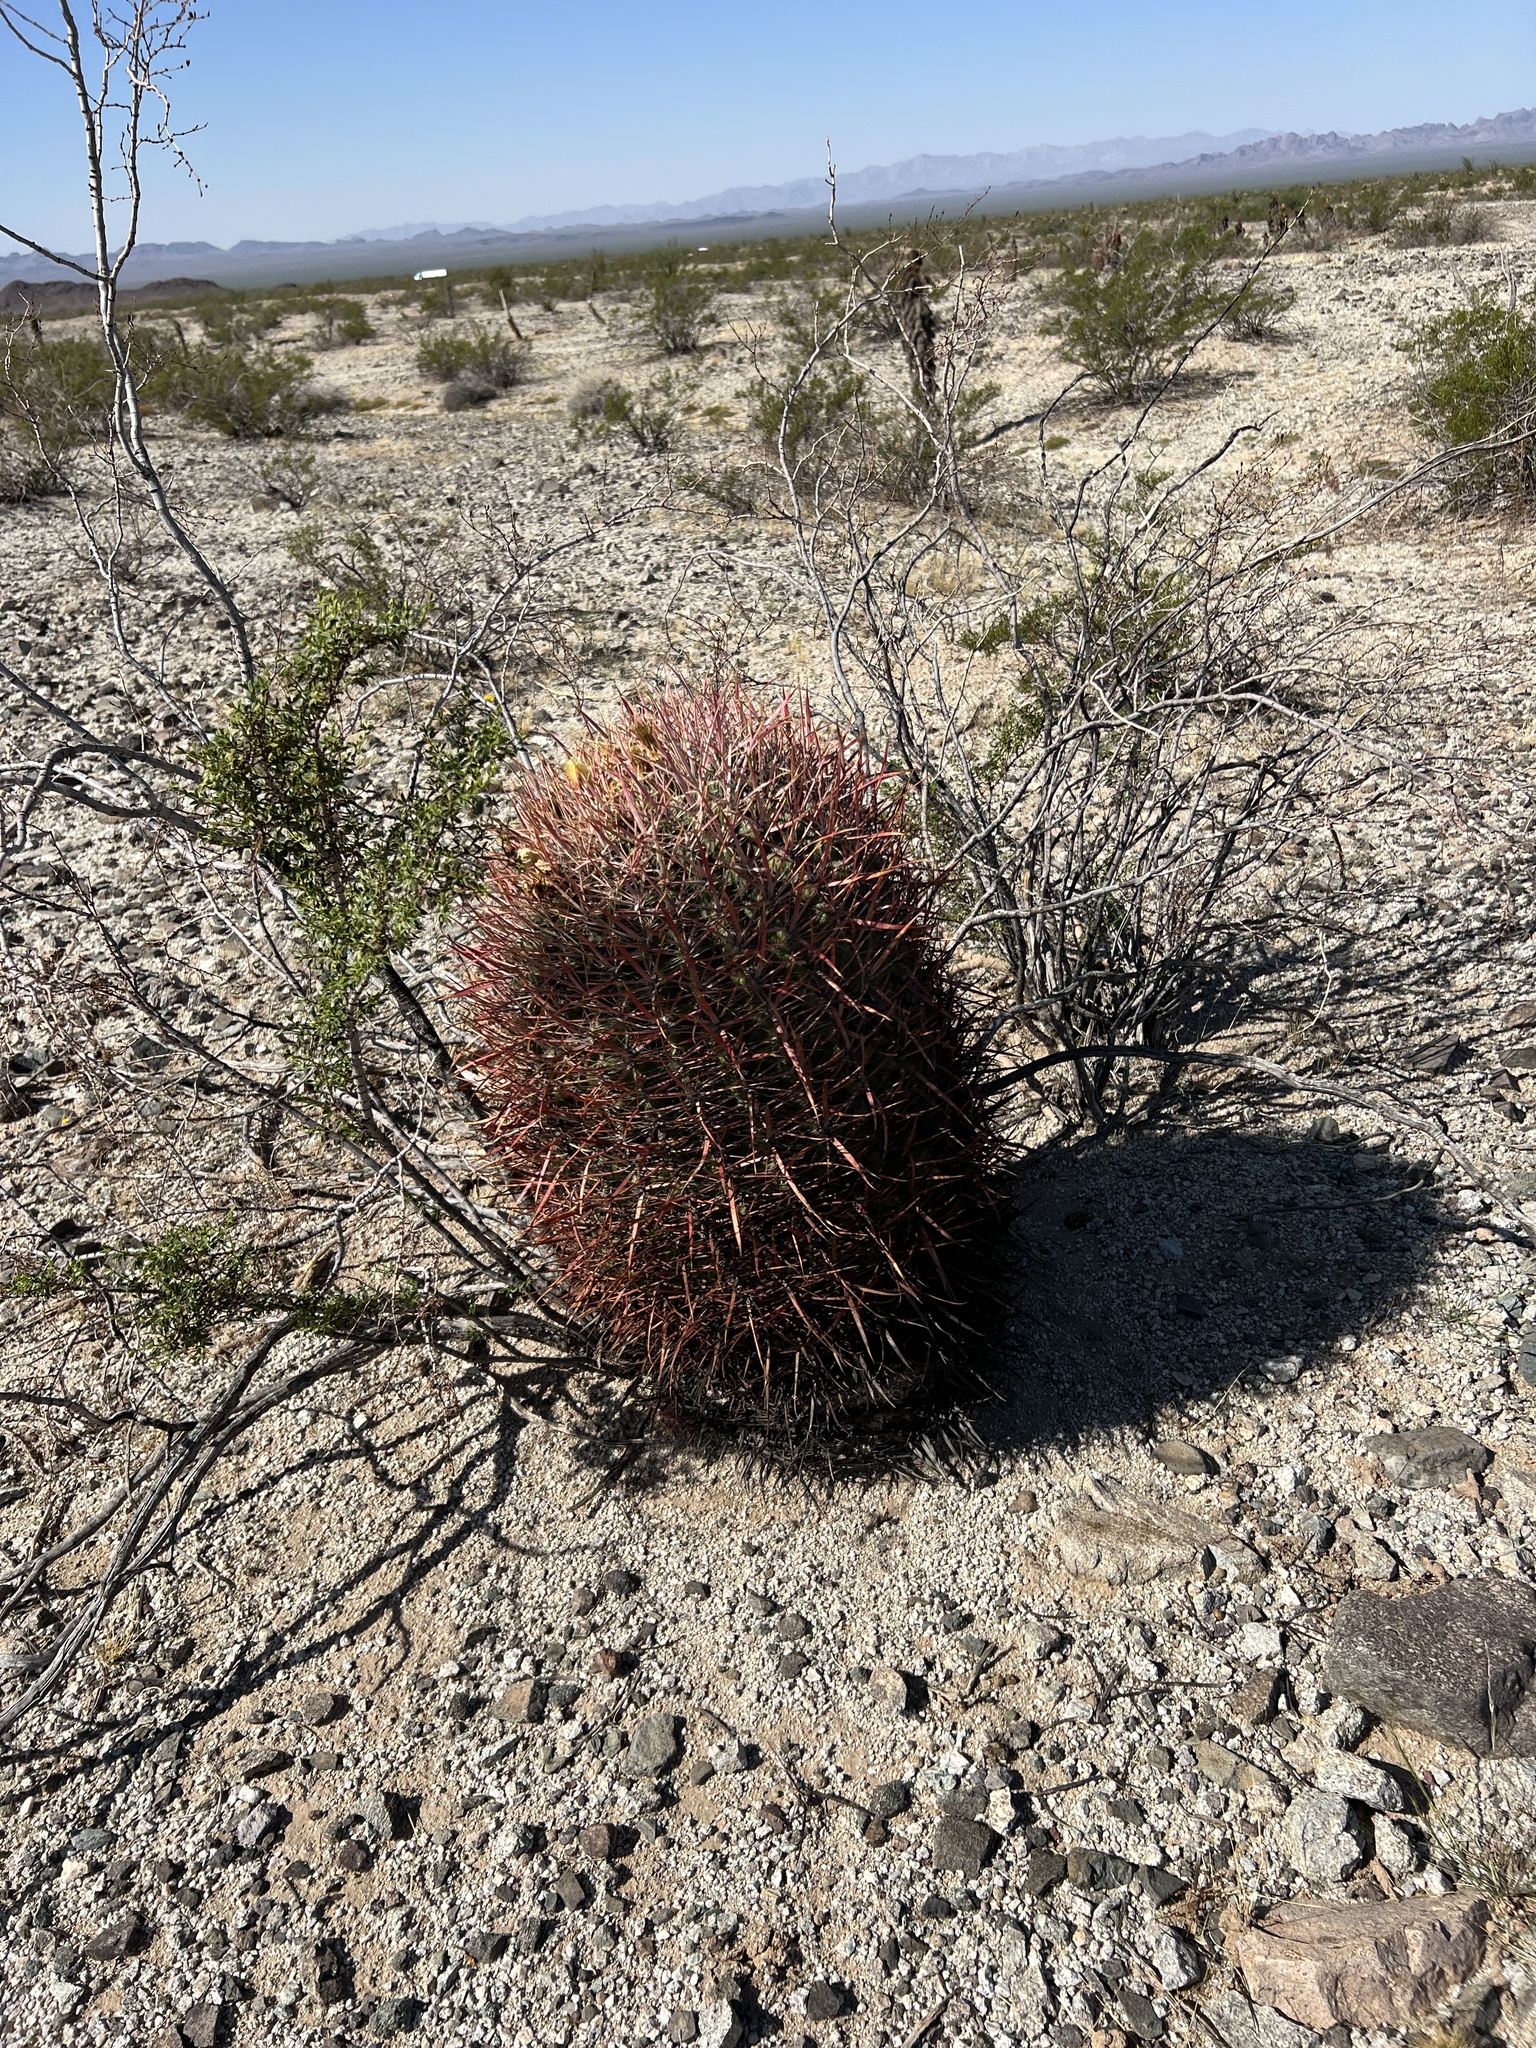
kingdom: Plantae
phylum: Tracheophyta
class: Magnoliopsida
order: Caryophyllales
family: Cactaceae
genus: Ferocactus
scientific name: Ferocactus cylindraceus
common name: California barrel cactus
